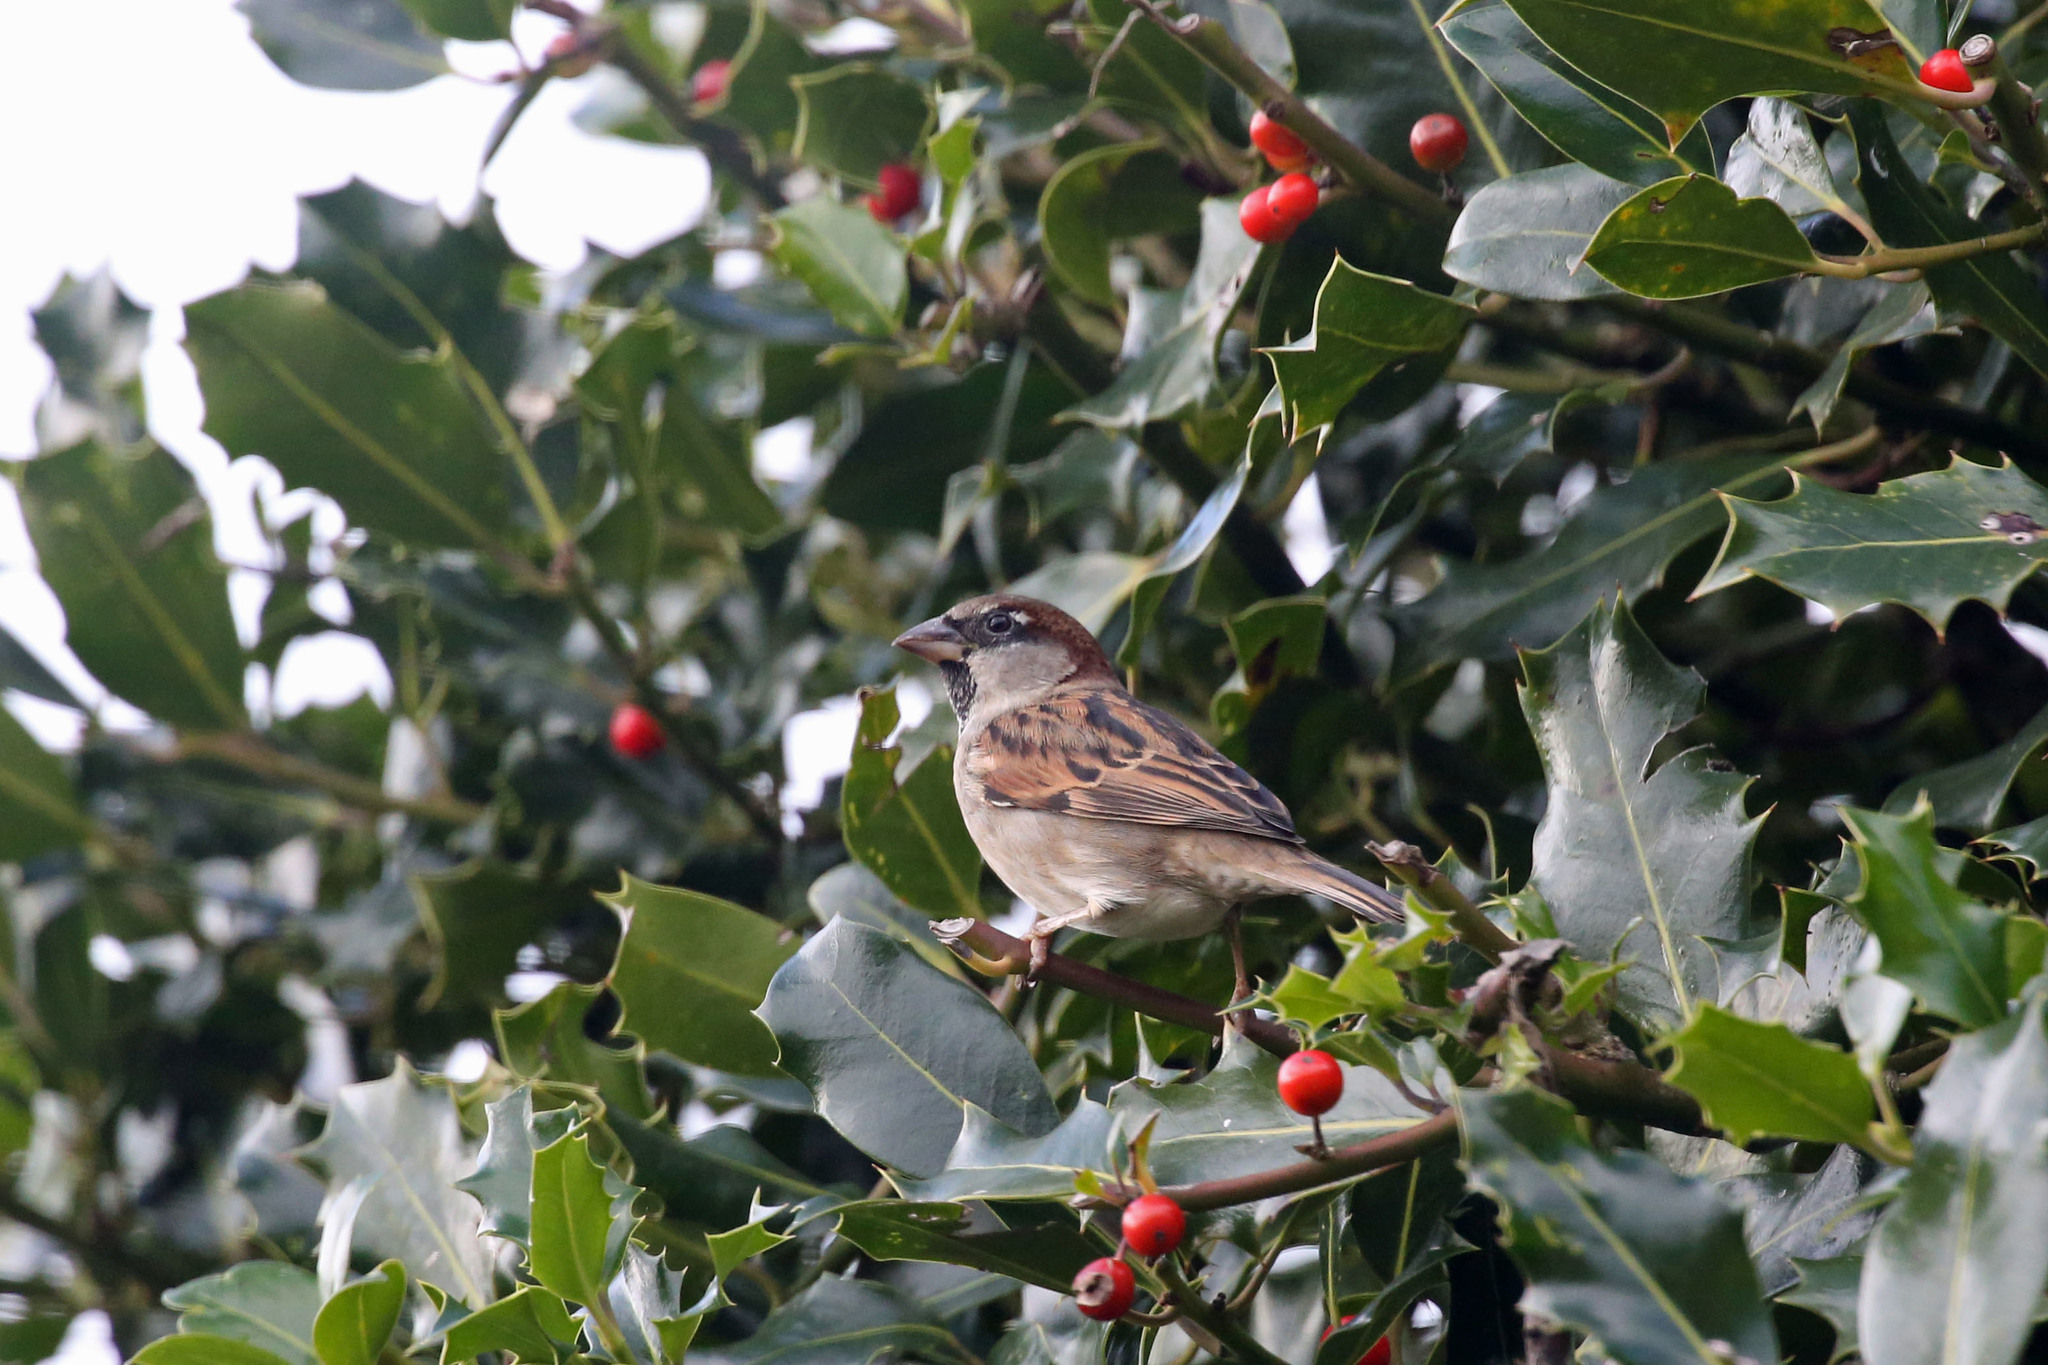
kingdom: Animalia
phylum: Chordata
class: Aves
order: Passeriformes
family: Passeridae
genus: Passer
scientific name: Passer domesticus
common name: House sparrow
